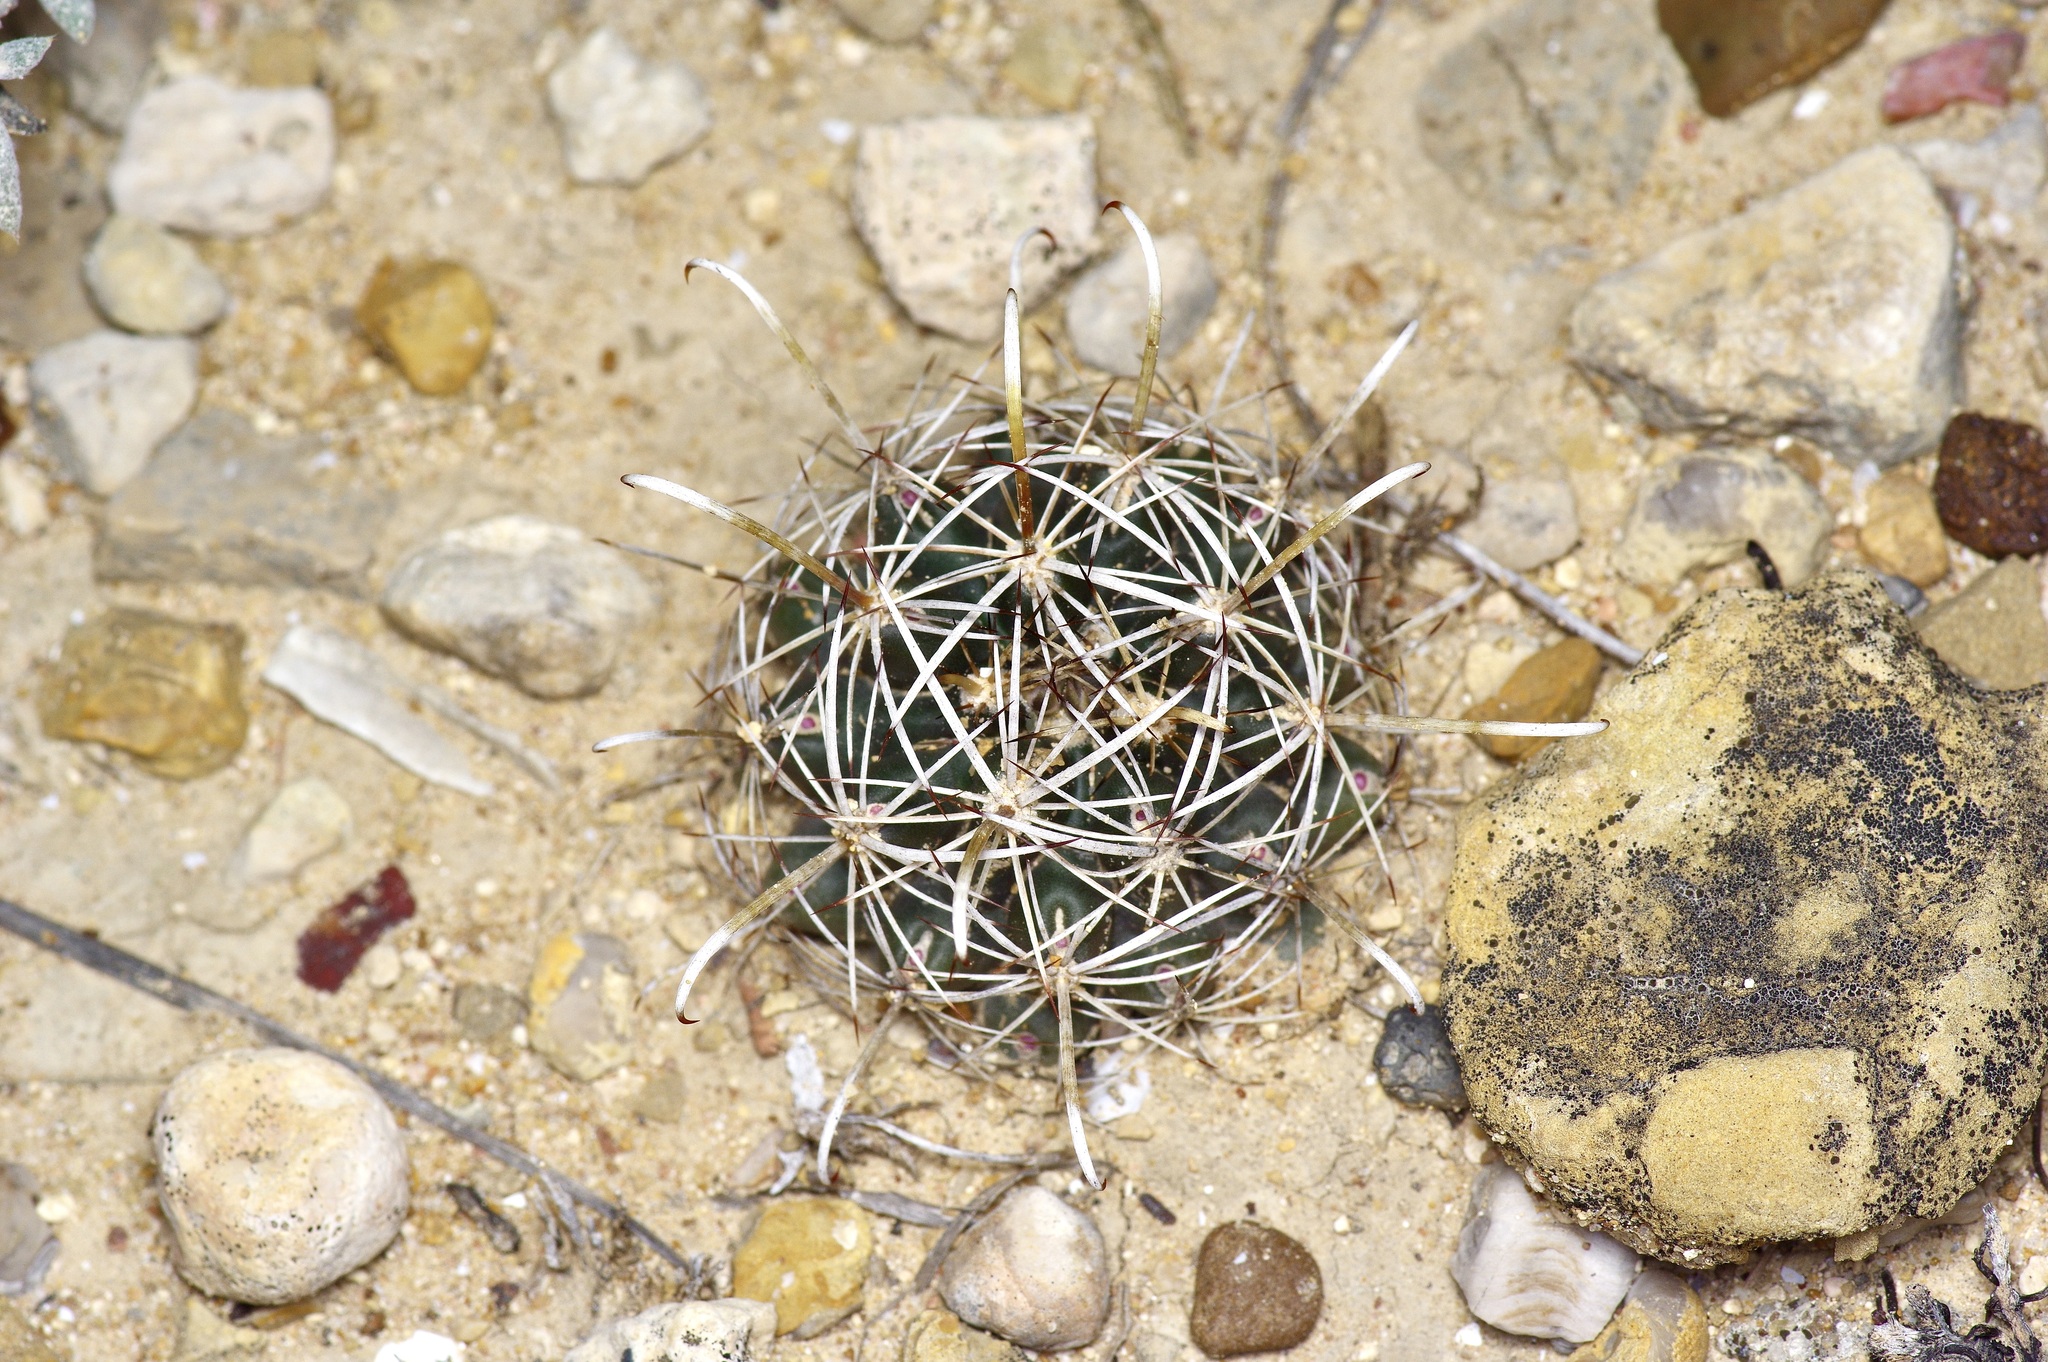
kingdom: Plantae
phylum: Tracheophyta
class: Magnoliopsida
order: Caryophyllales
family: Cactaceae
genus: Sclerocactus
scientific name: Sclerocactus brevihamatus
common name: Engelmann's fishhook cactus
